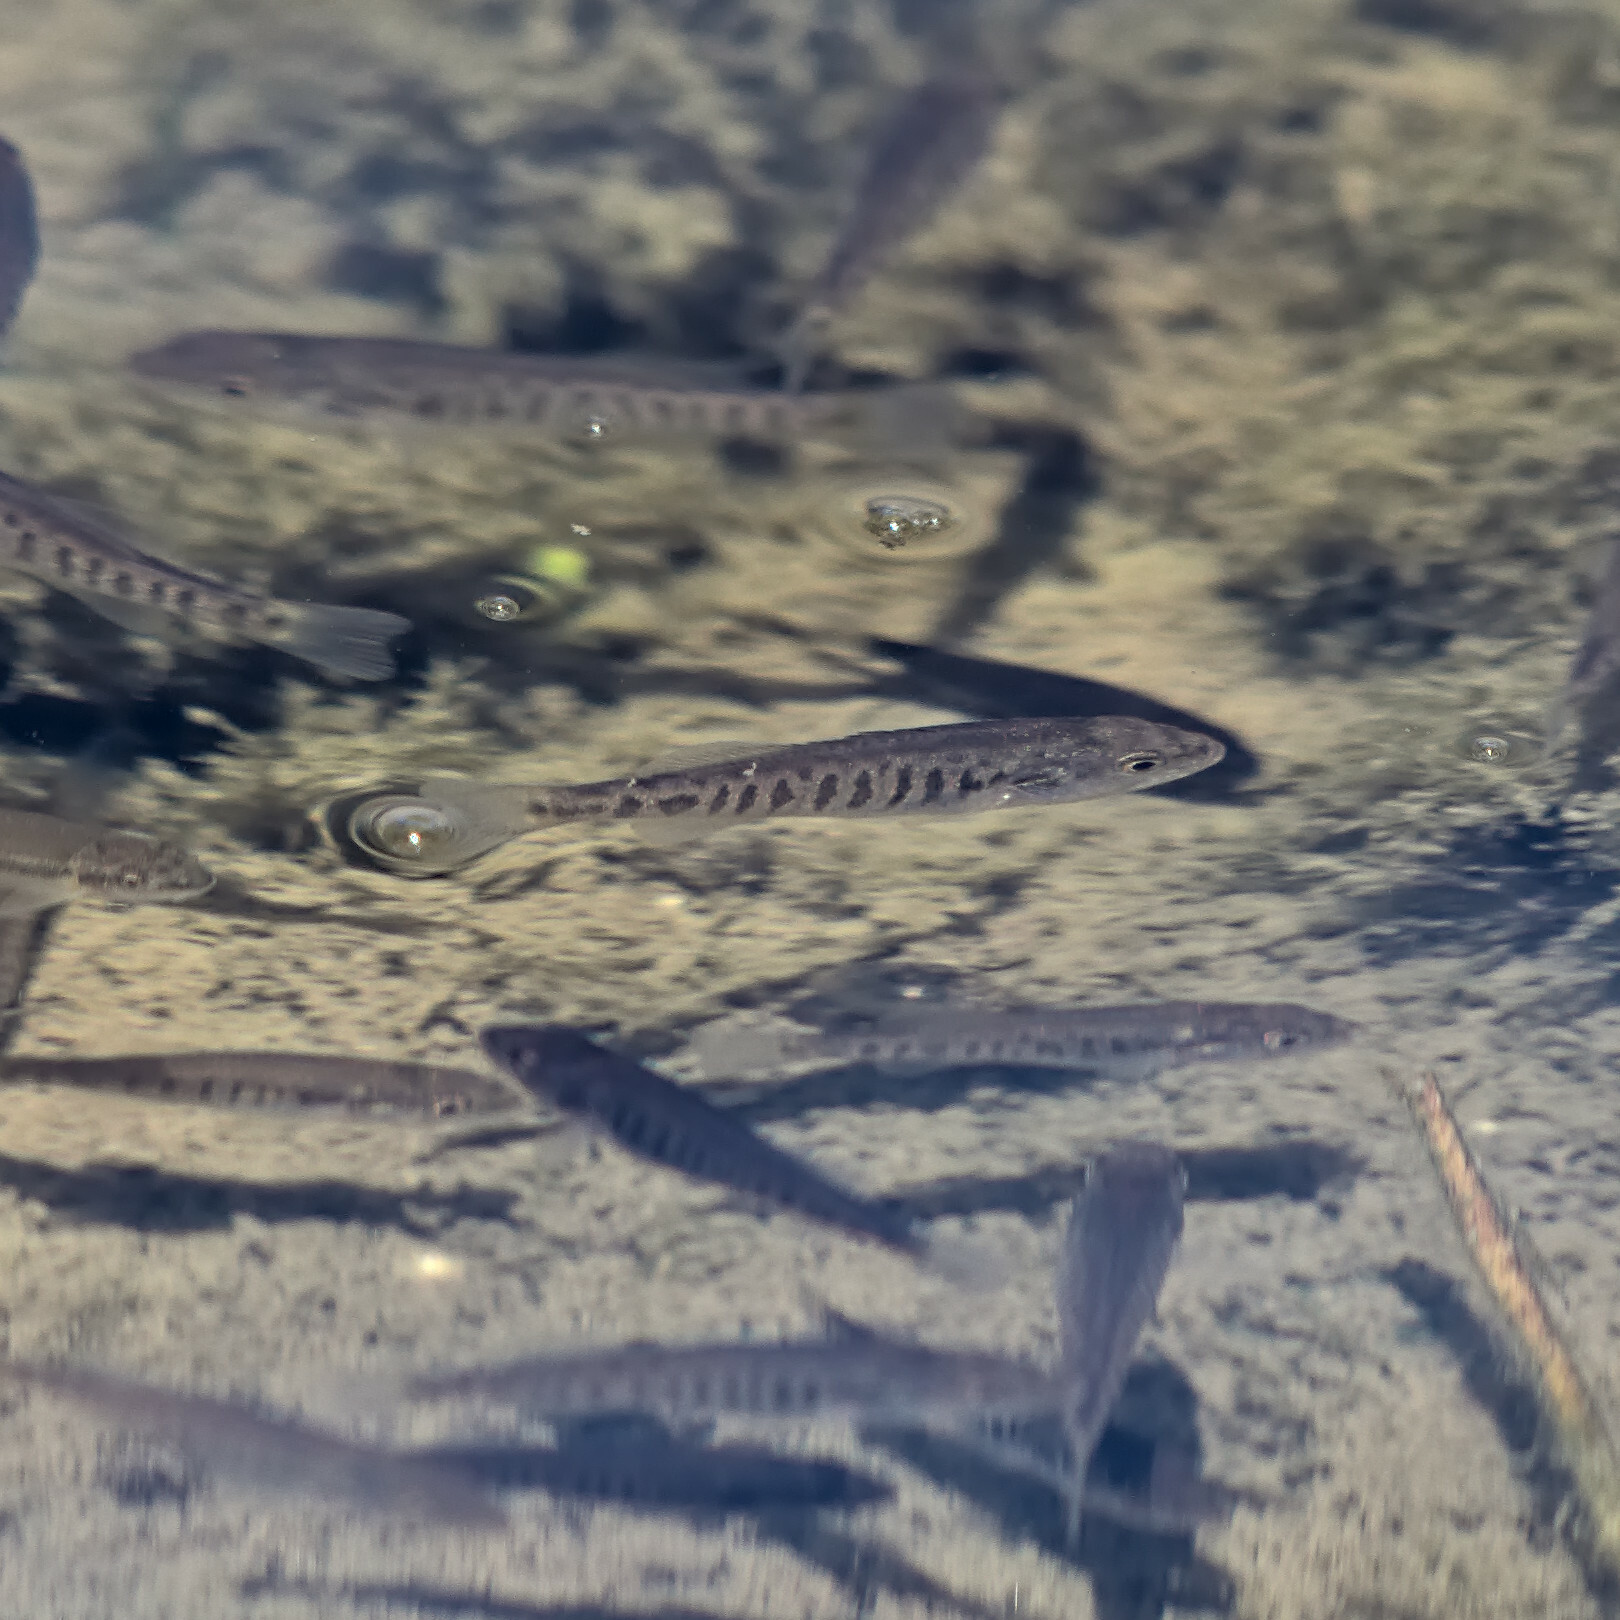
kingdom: Animalia
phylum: Chordata
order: Cyprinodontiformes
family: Fundulidae
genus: Fundulus
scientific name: Fundulus diaphanus
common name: Banded killifish
